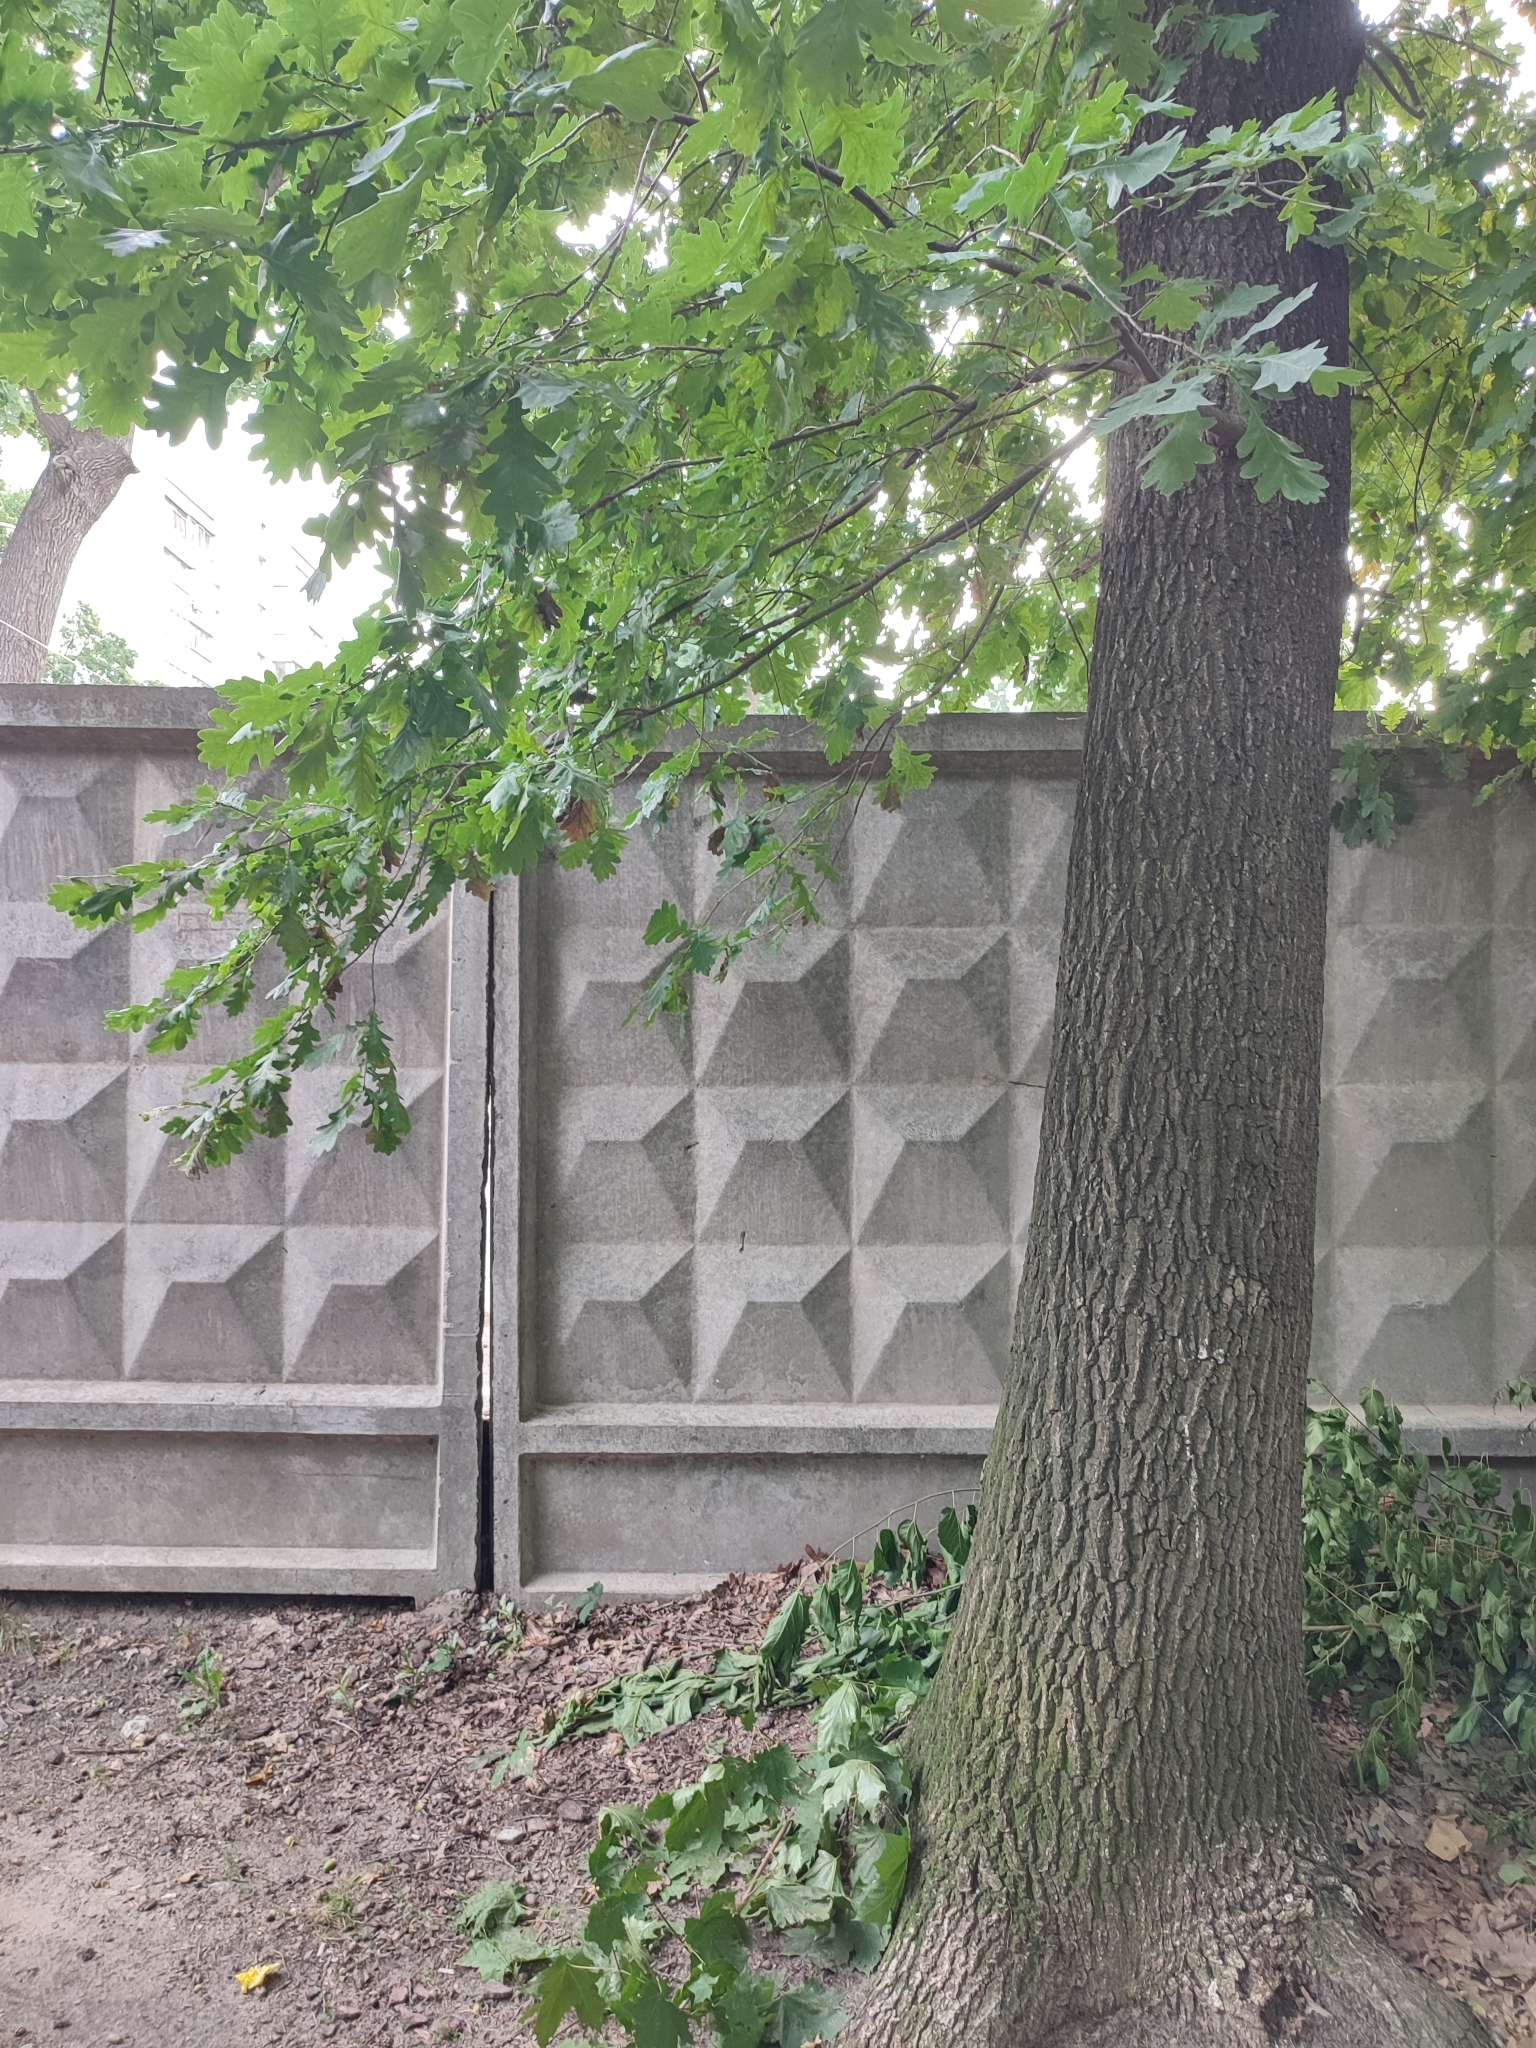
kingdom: Plantae
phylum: Tracheophyta
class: Magnoliopsida
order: Fagales
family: Fagaceae
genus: Quercus
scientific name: Quercus robur
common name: Pedunculate oak
